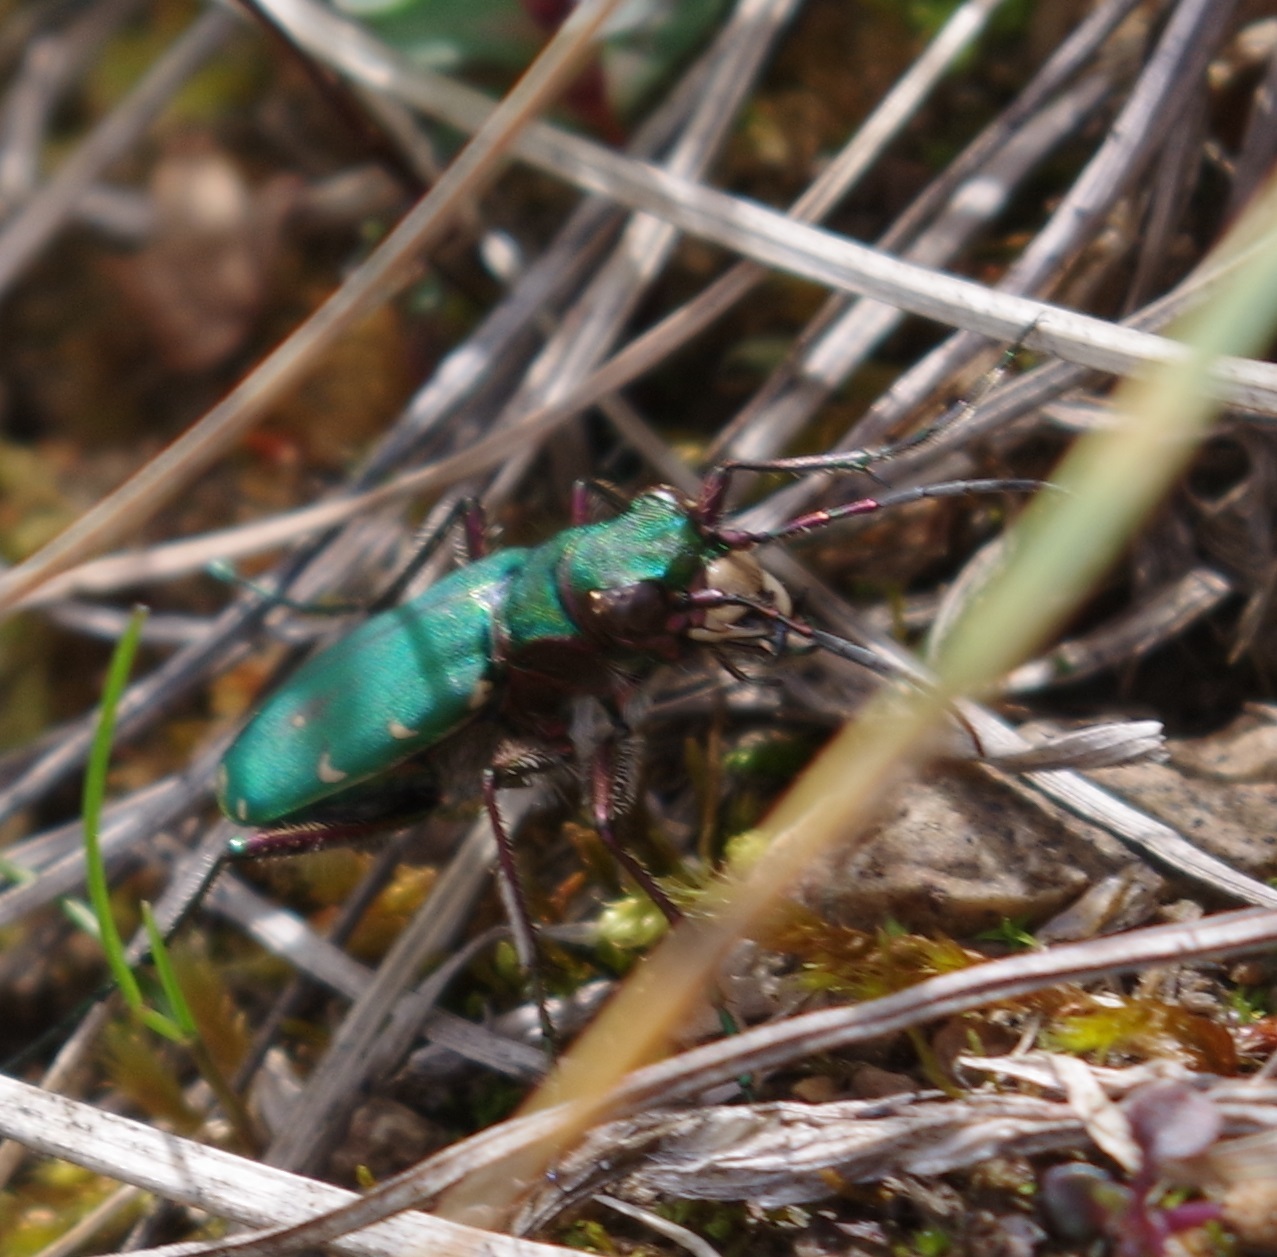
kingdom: Animalia
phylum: Arthropoda
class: Insecta
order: Coleoptera
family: Carabidae
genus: Cicindela
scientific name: Cicindela campestris
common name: Common tiger beetle
